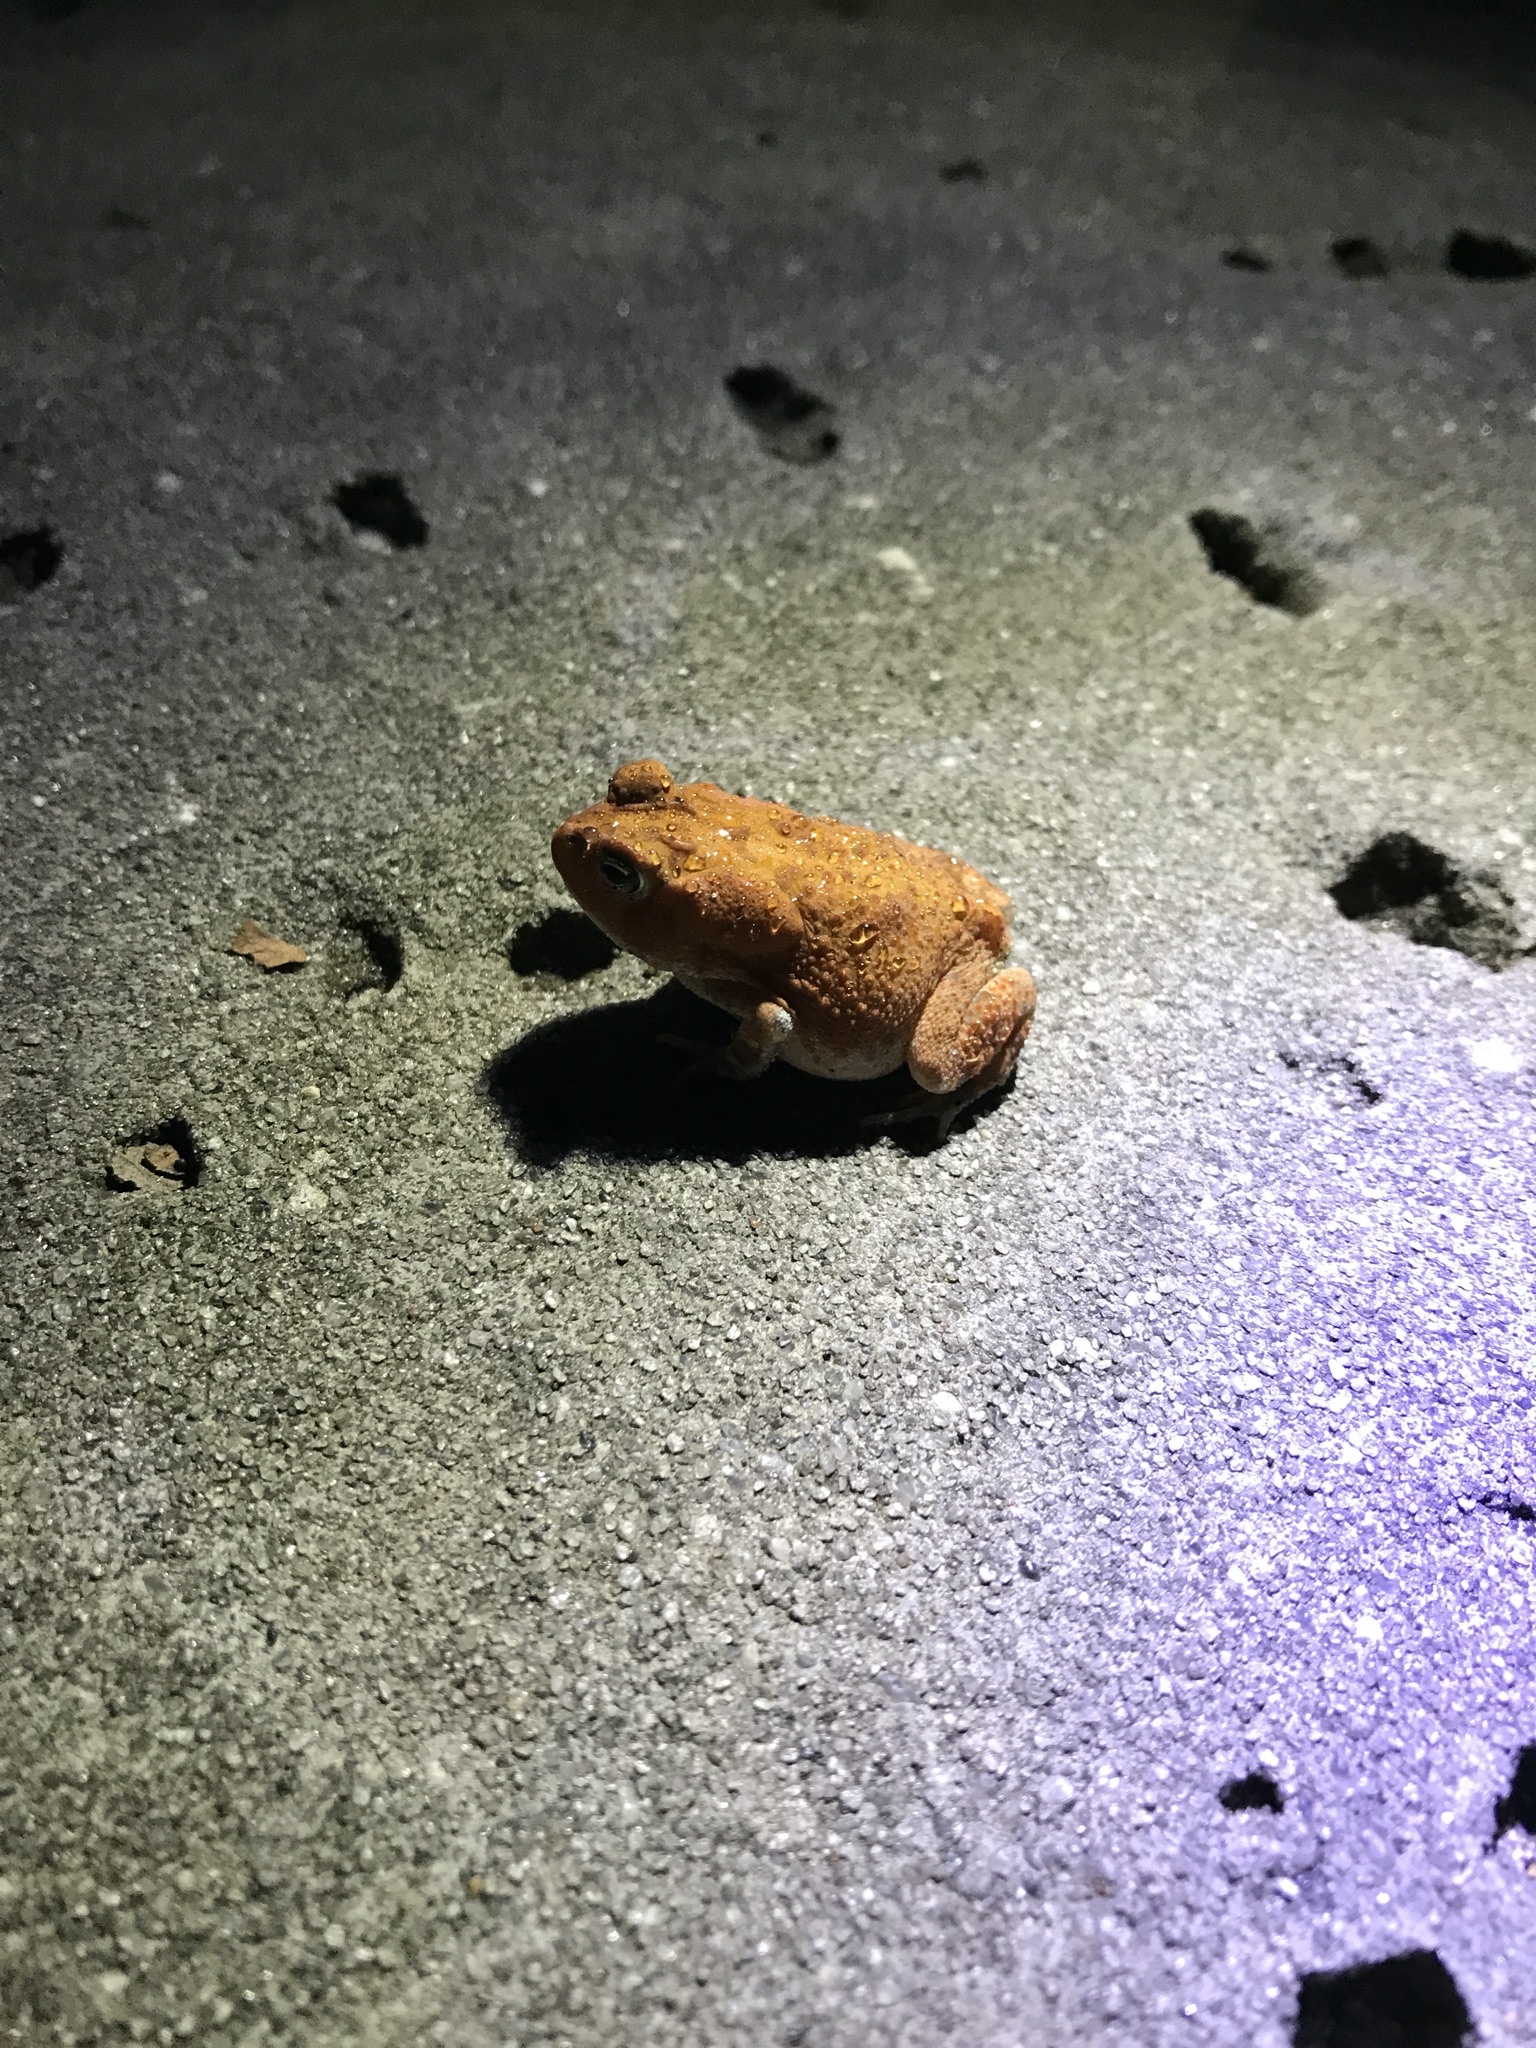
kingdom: Animalia
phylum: Chordata
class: Amphibia
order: Anura
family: Bufonidae
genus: Anaxyrus
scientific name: Anaxyrus terrestris
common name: Southern toad
